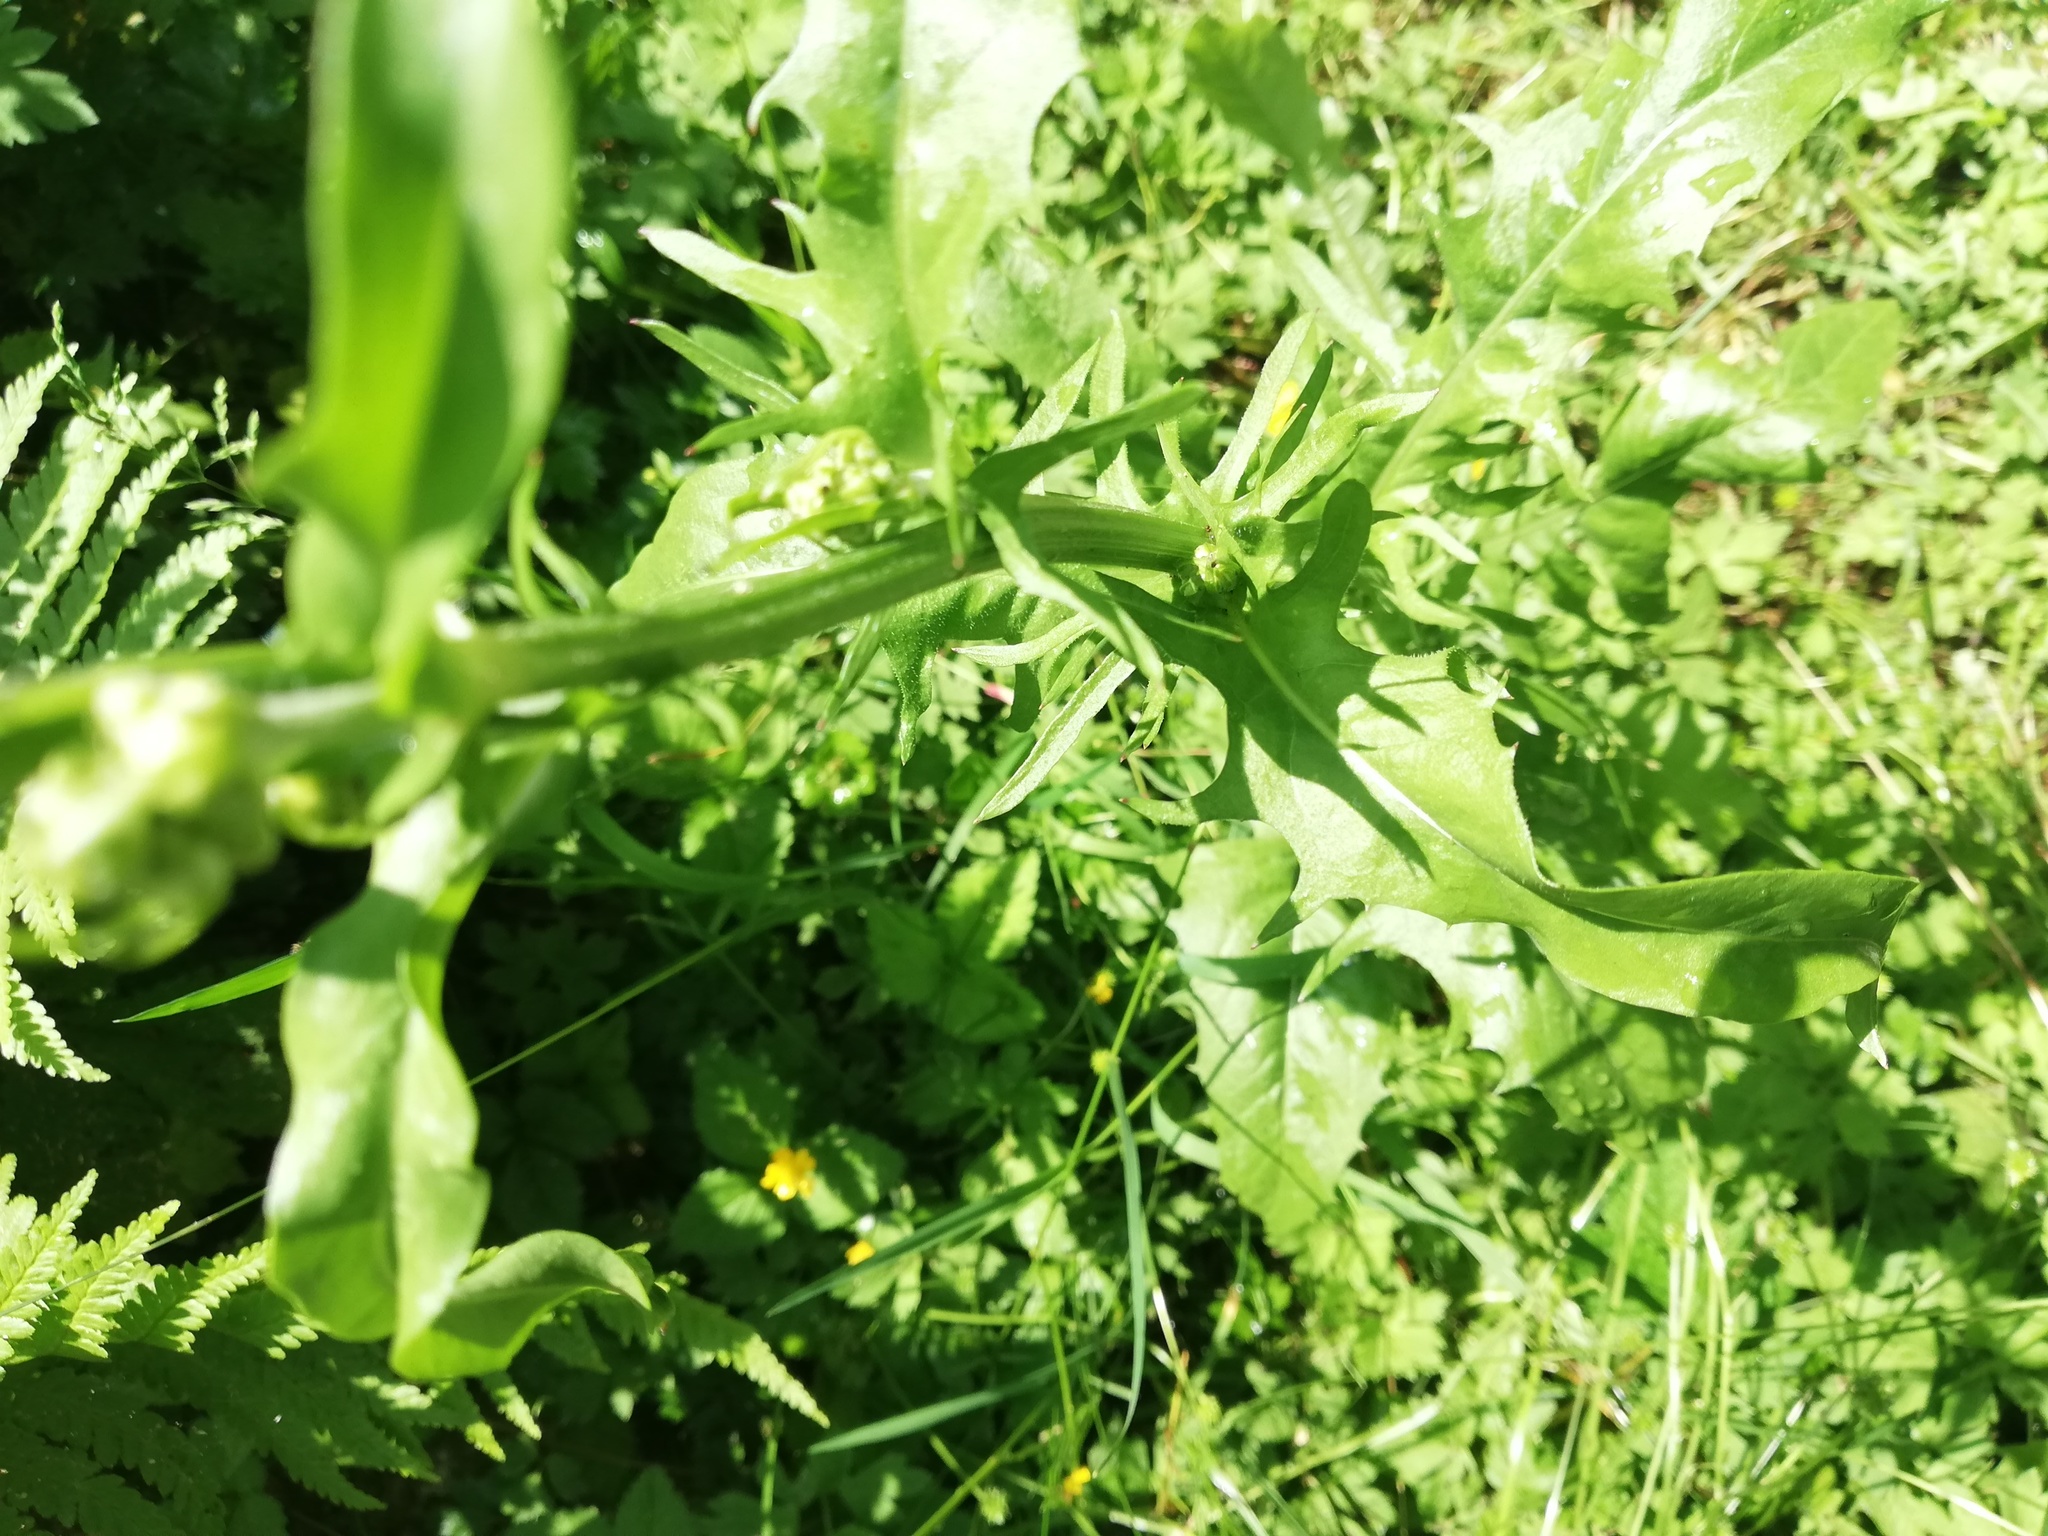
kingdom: Plantae
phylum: Tracheophyta
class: Magnoliopsida
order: Asterales
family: Asteraceae
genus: Crepis
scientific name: Crepis biennis
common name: Rough hawk's-beard
